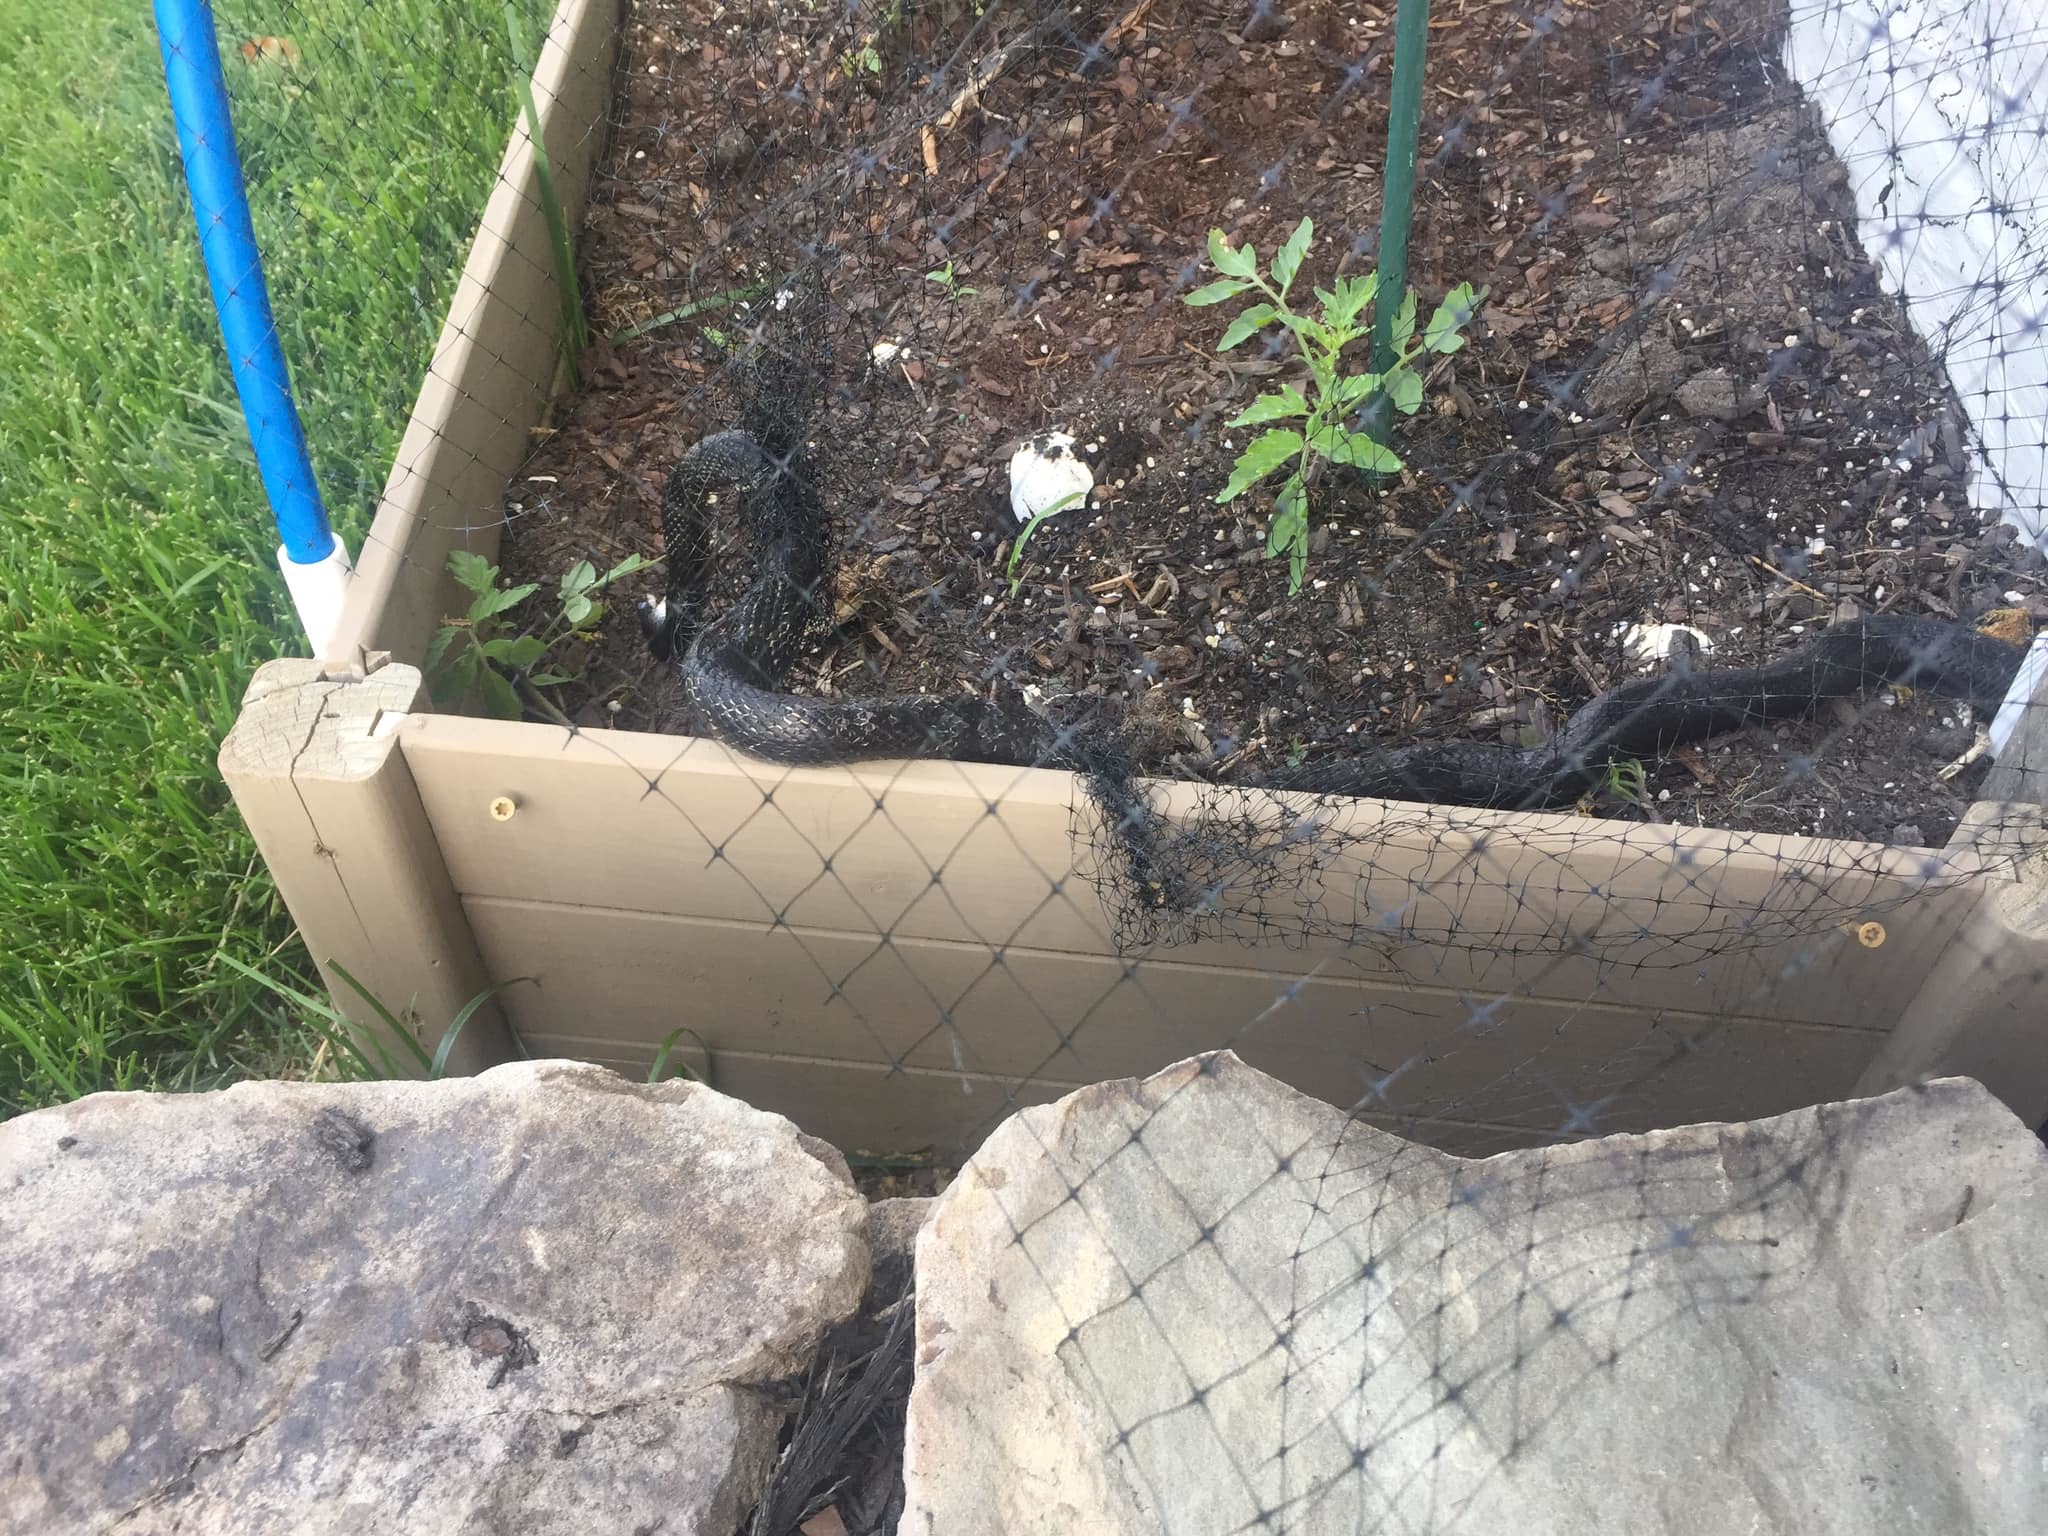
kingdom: Animalia
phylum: Chordata
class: Squamata
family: Colubridae
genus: Pantherophis
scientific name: Pantherophis alleghaniensis
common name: Eastern rat snake
